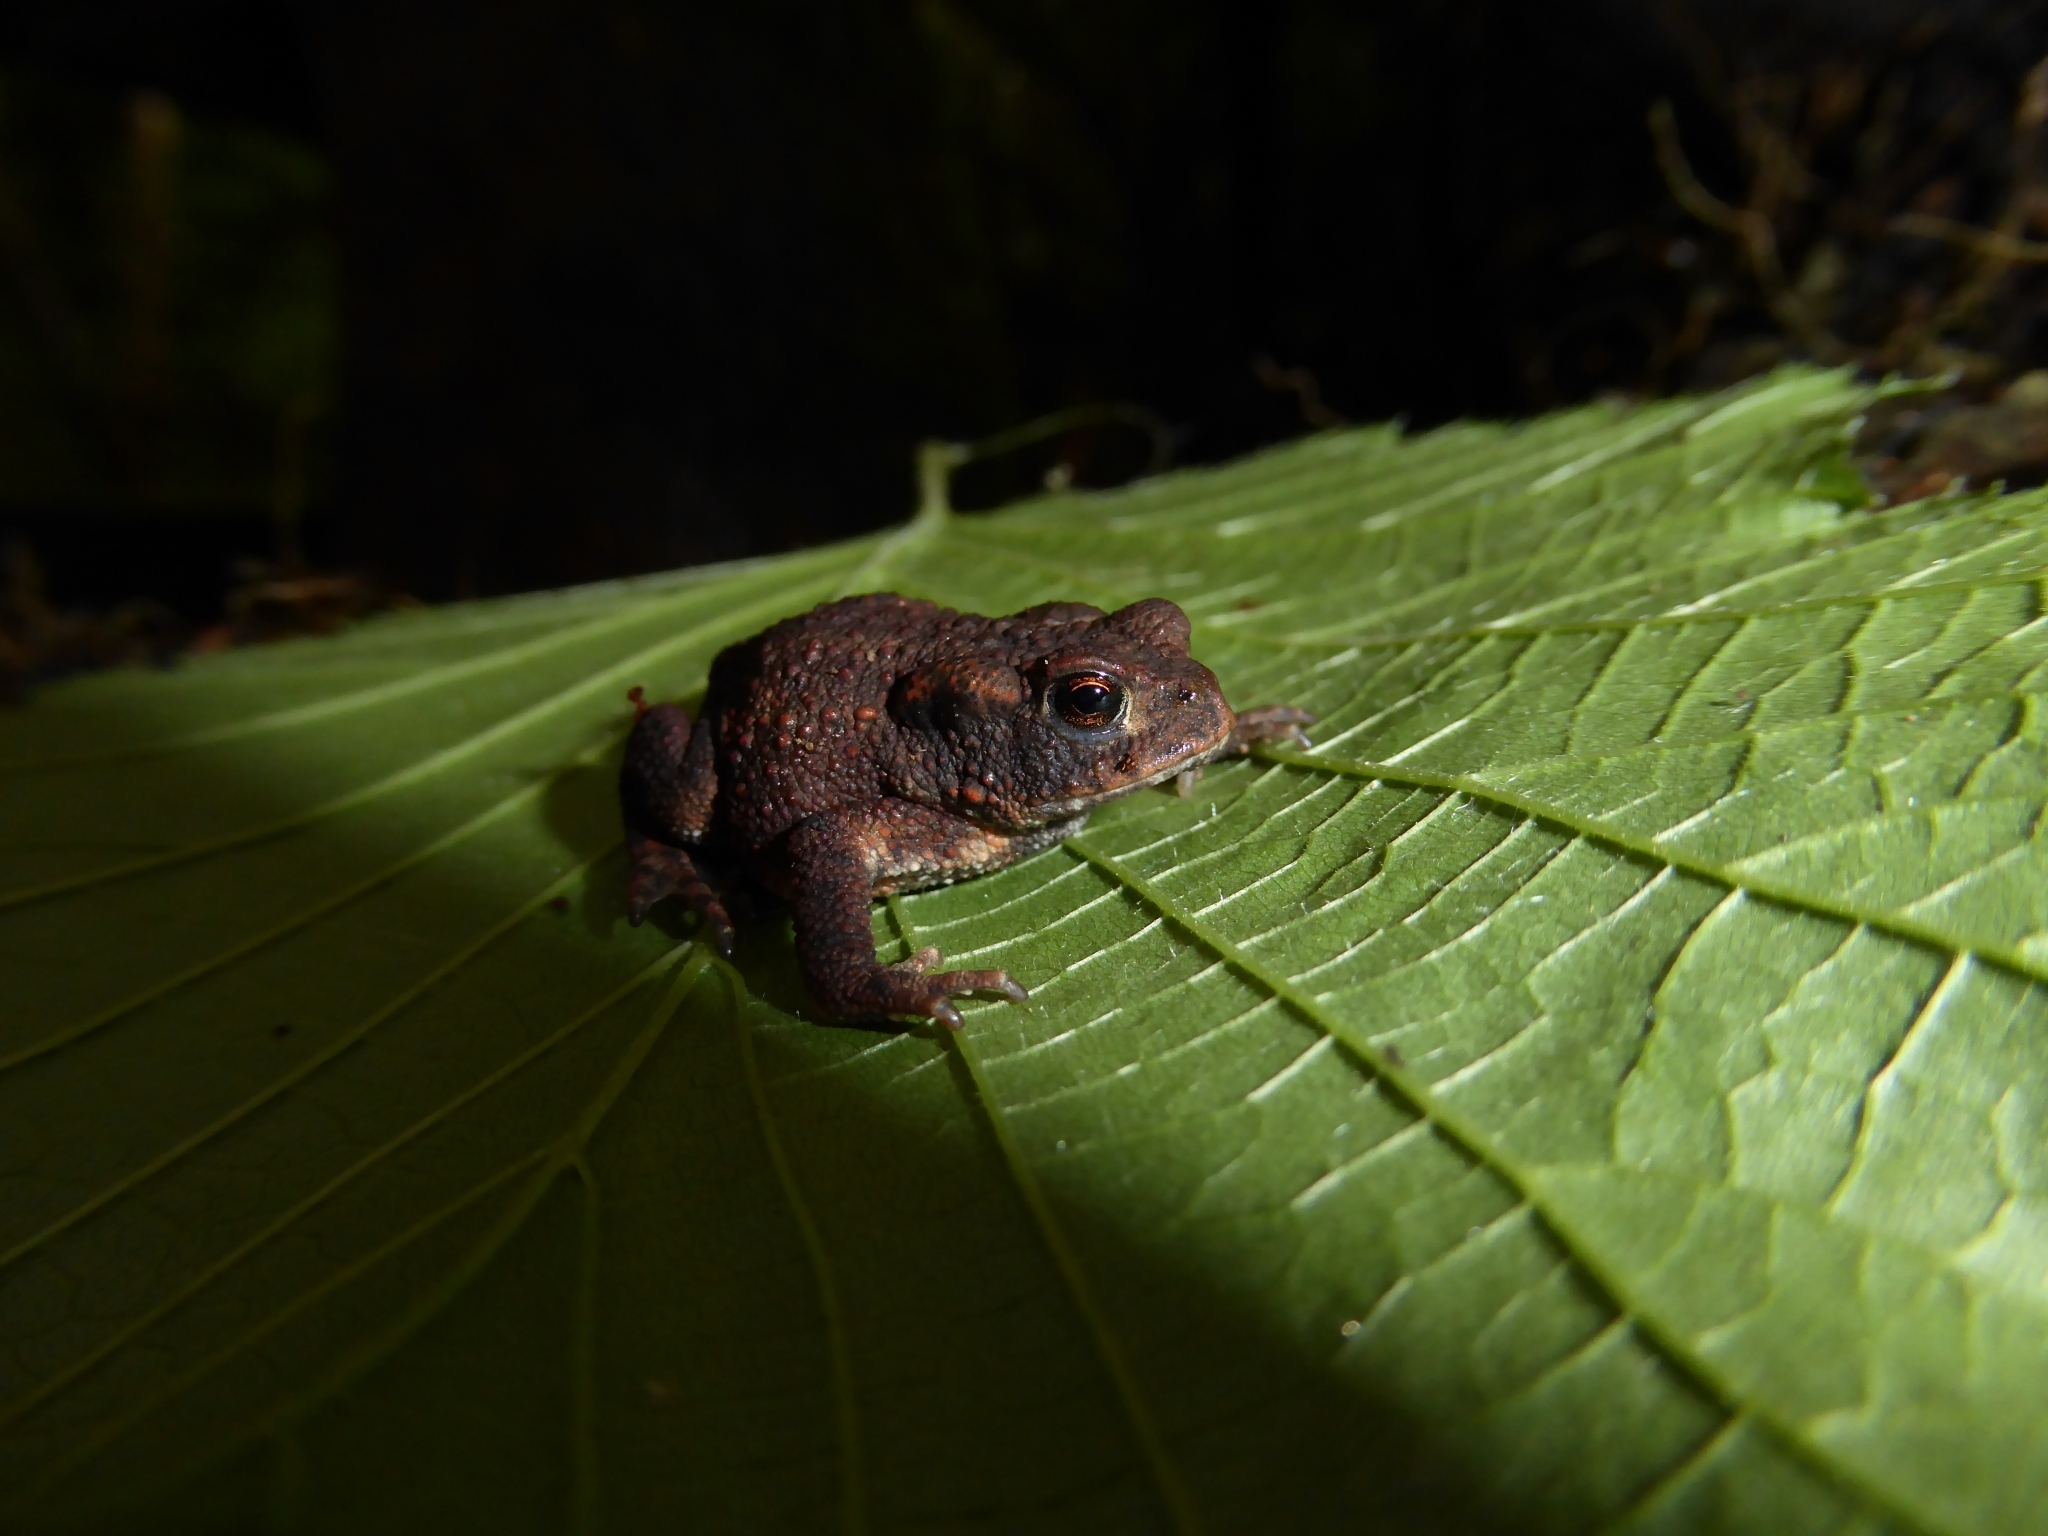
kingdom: Animalia
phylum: Chordata
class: Amphibia
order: Anura
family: Bufonidae
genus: Bufo
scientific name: Bufo bufo
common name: Common toad
